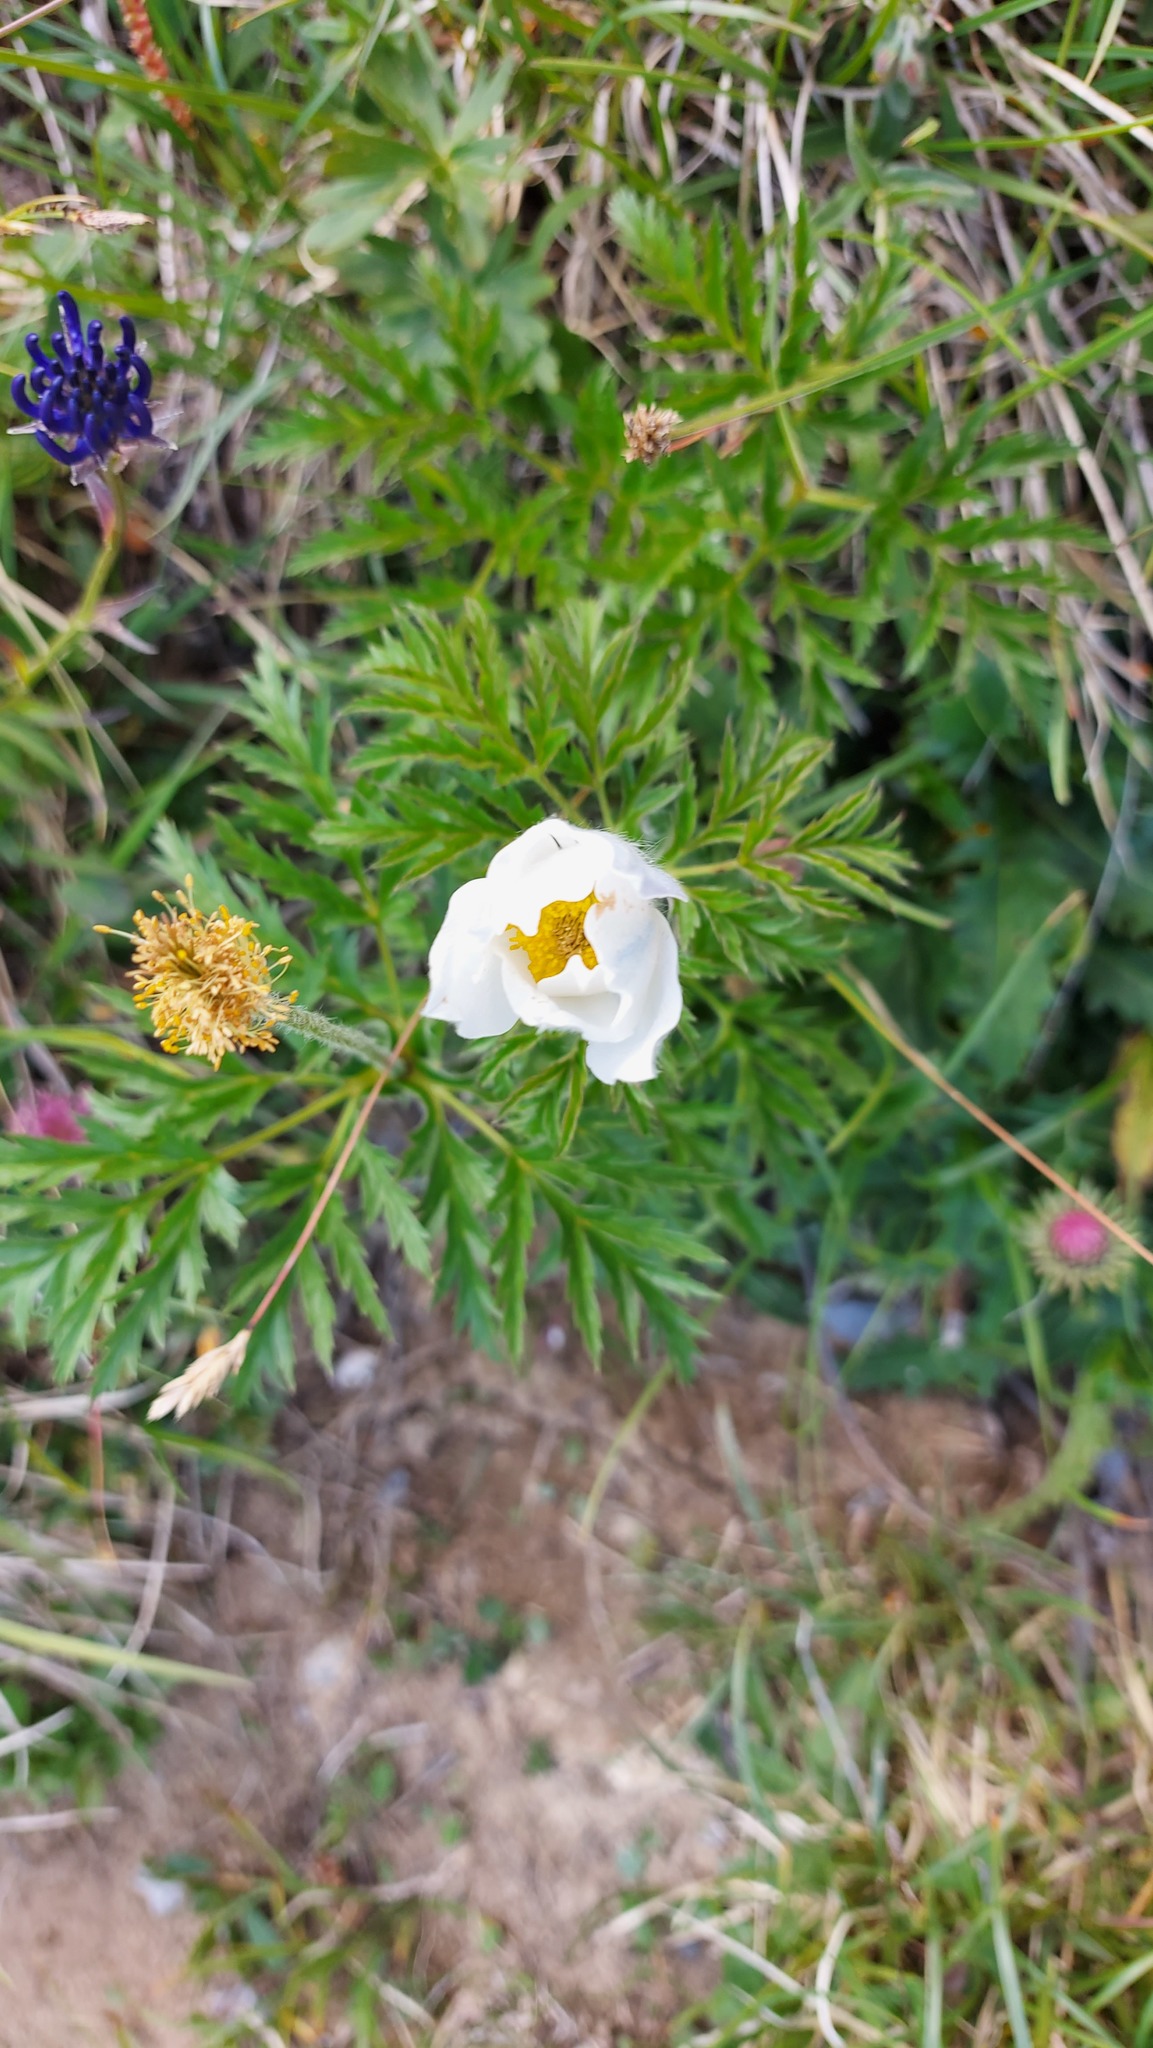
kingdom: Plantae
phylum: Tracheophyta
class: Magnoliopsida
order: Ranunculales
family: Ranunculaceae
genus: Pulsatilla
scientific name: Pulsatilla alpina
